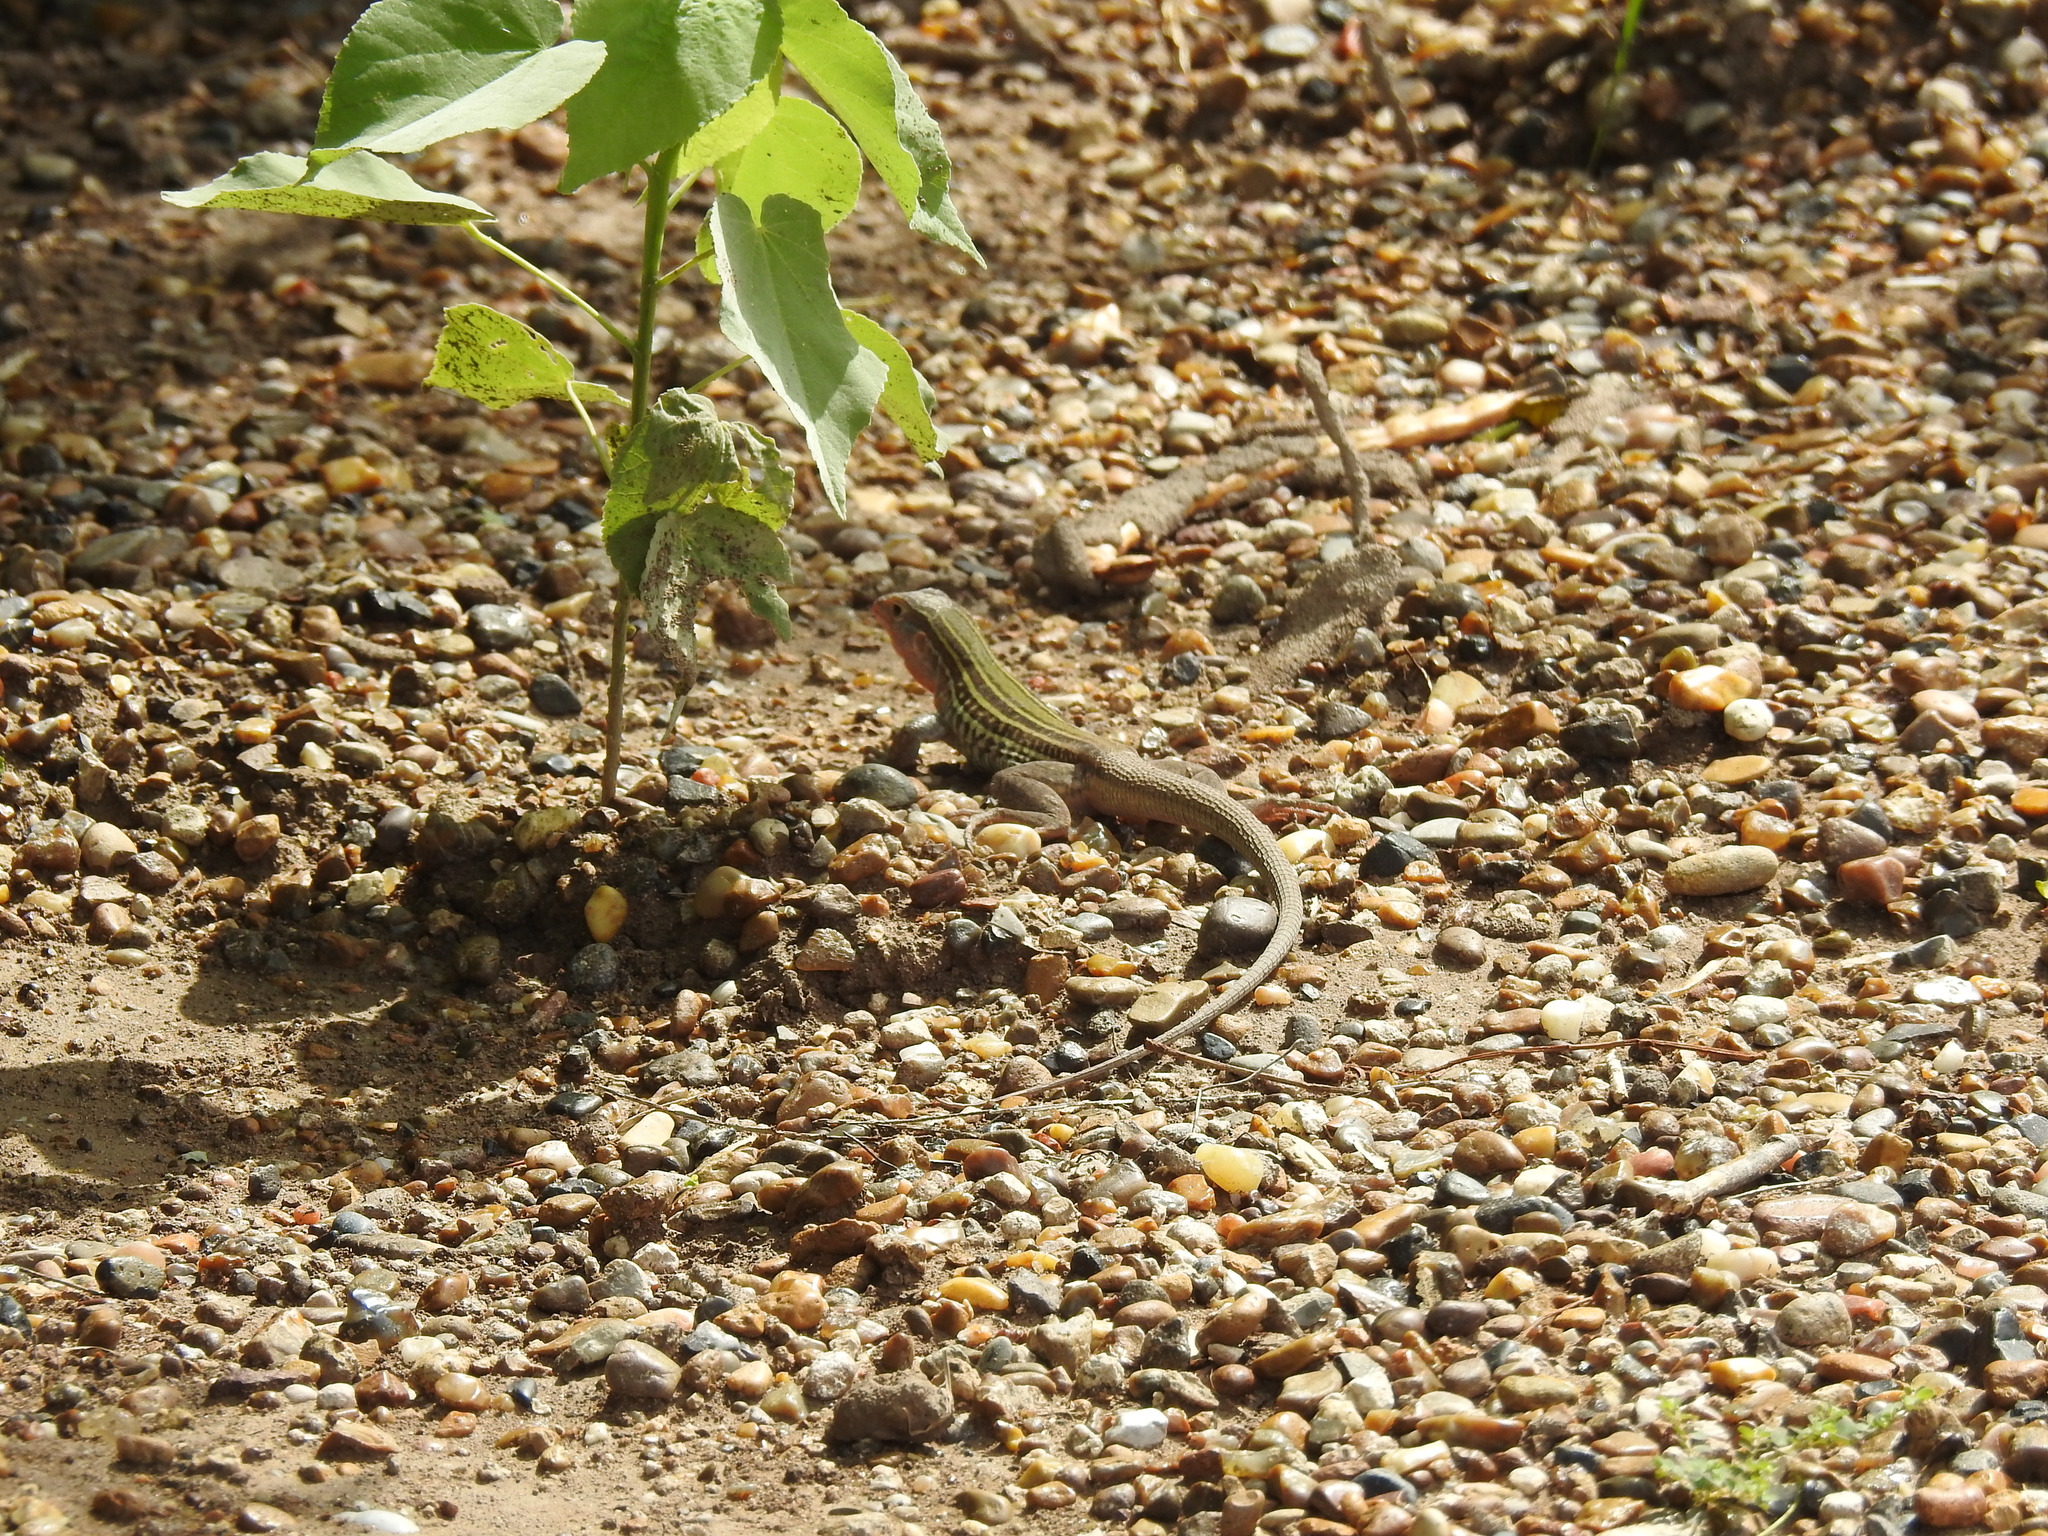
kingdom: Animalia
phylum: Chordata
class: Squamata
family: Teiidae
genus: Aspidoscelis
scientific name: Aspidoscelis gularis
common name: Eastern spotted whiptail
